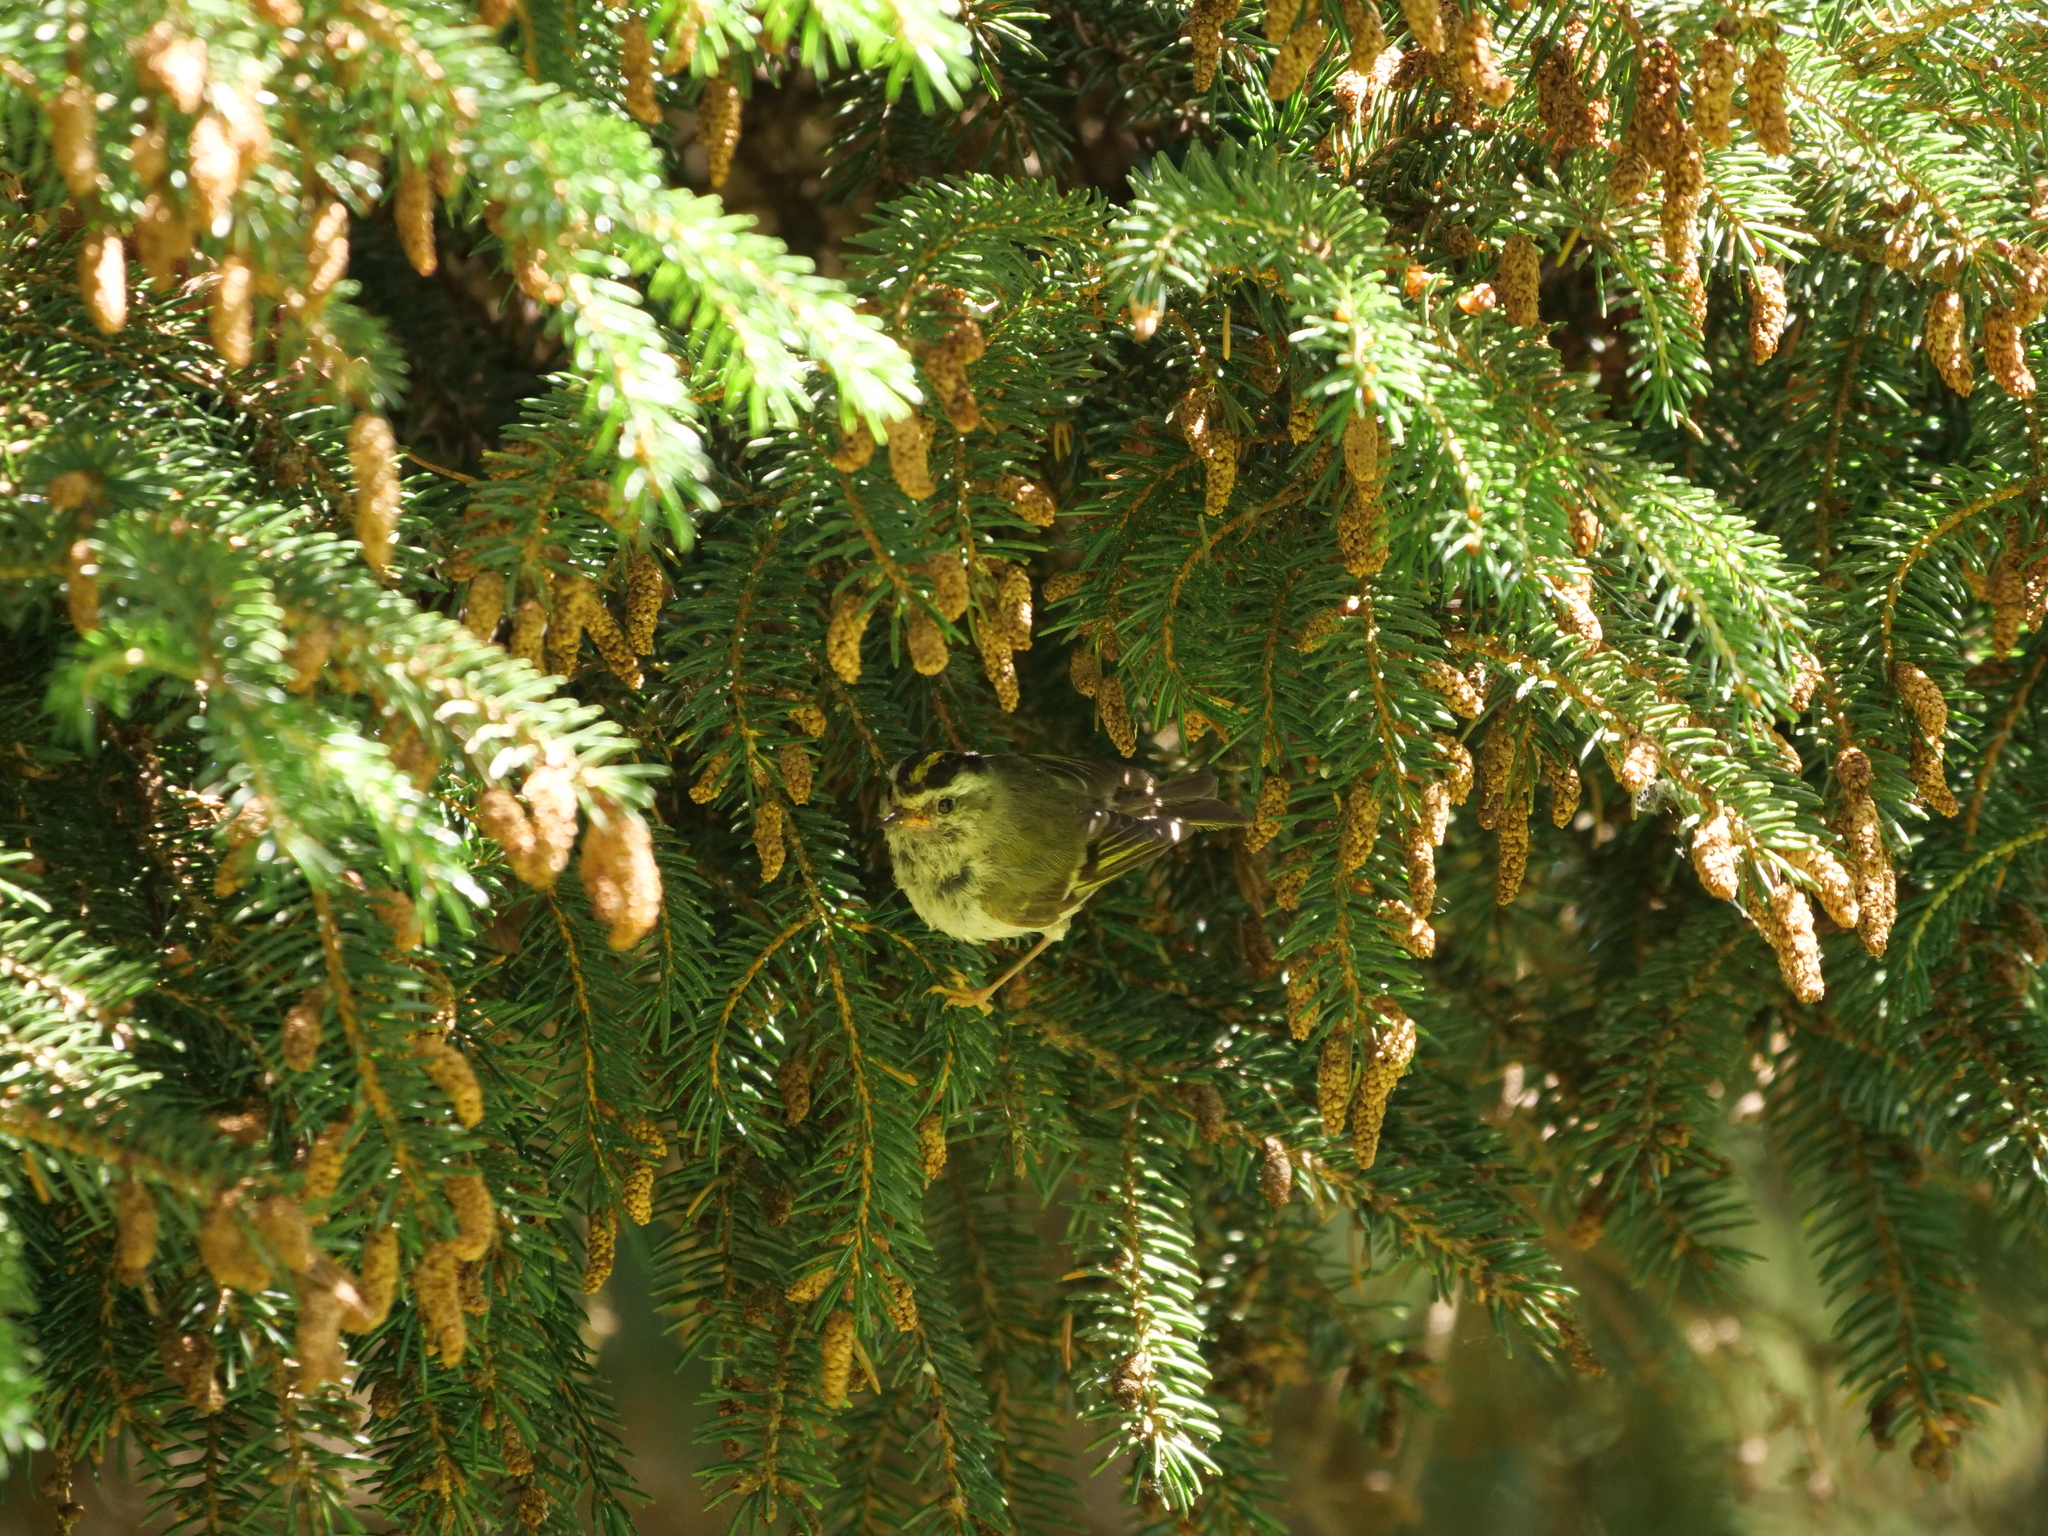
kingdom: Animalia
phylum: Chordata
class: Aves
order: Passeriformes
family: Regulidae
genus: Regulus
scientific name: Regulus satrapa
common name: Golden-crowned kinglet
